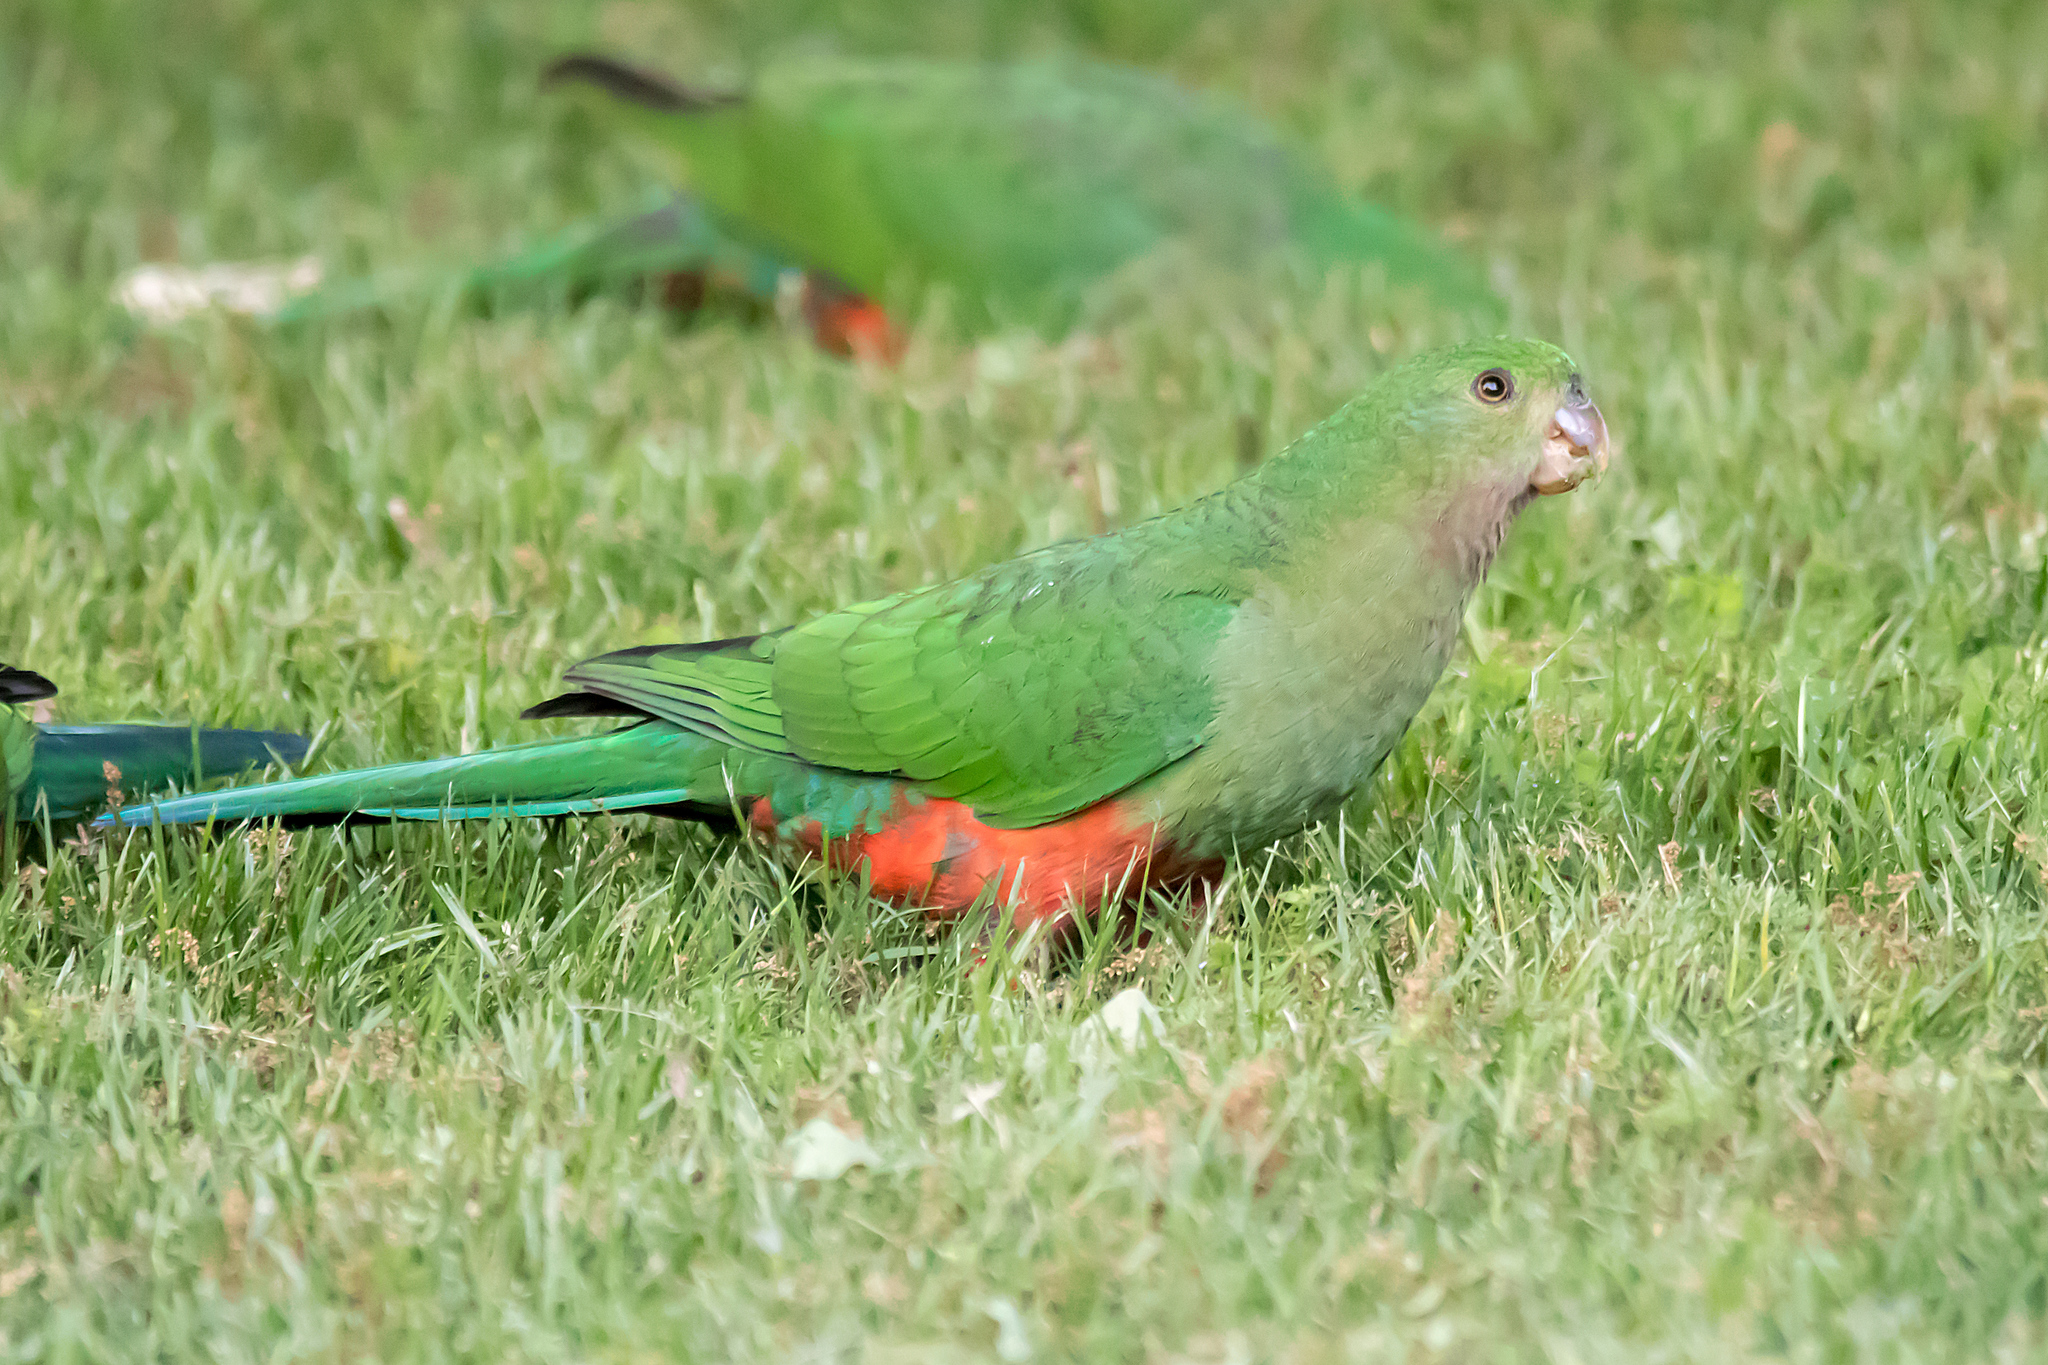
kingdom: Animalia
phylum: Chordata
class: Aves
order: Psittaciformes
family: Psittacidae
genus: Alisterus
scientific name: Alisterus scapularis
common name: Australian king parrot
